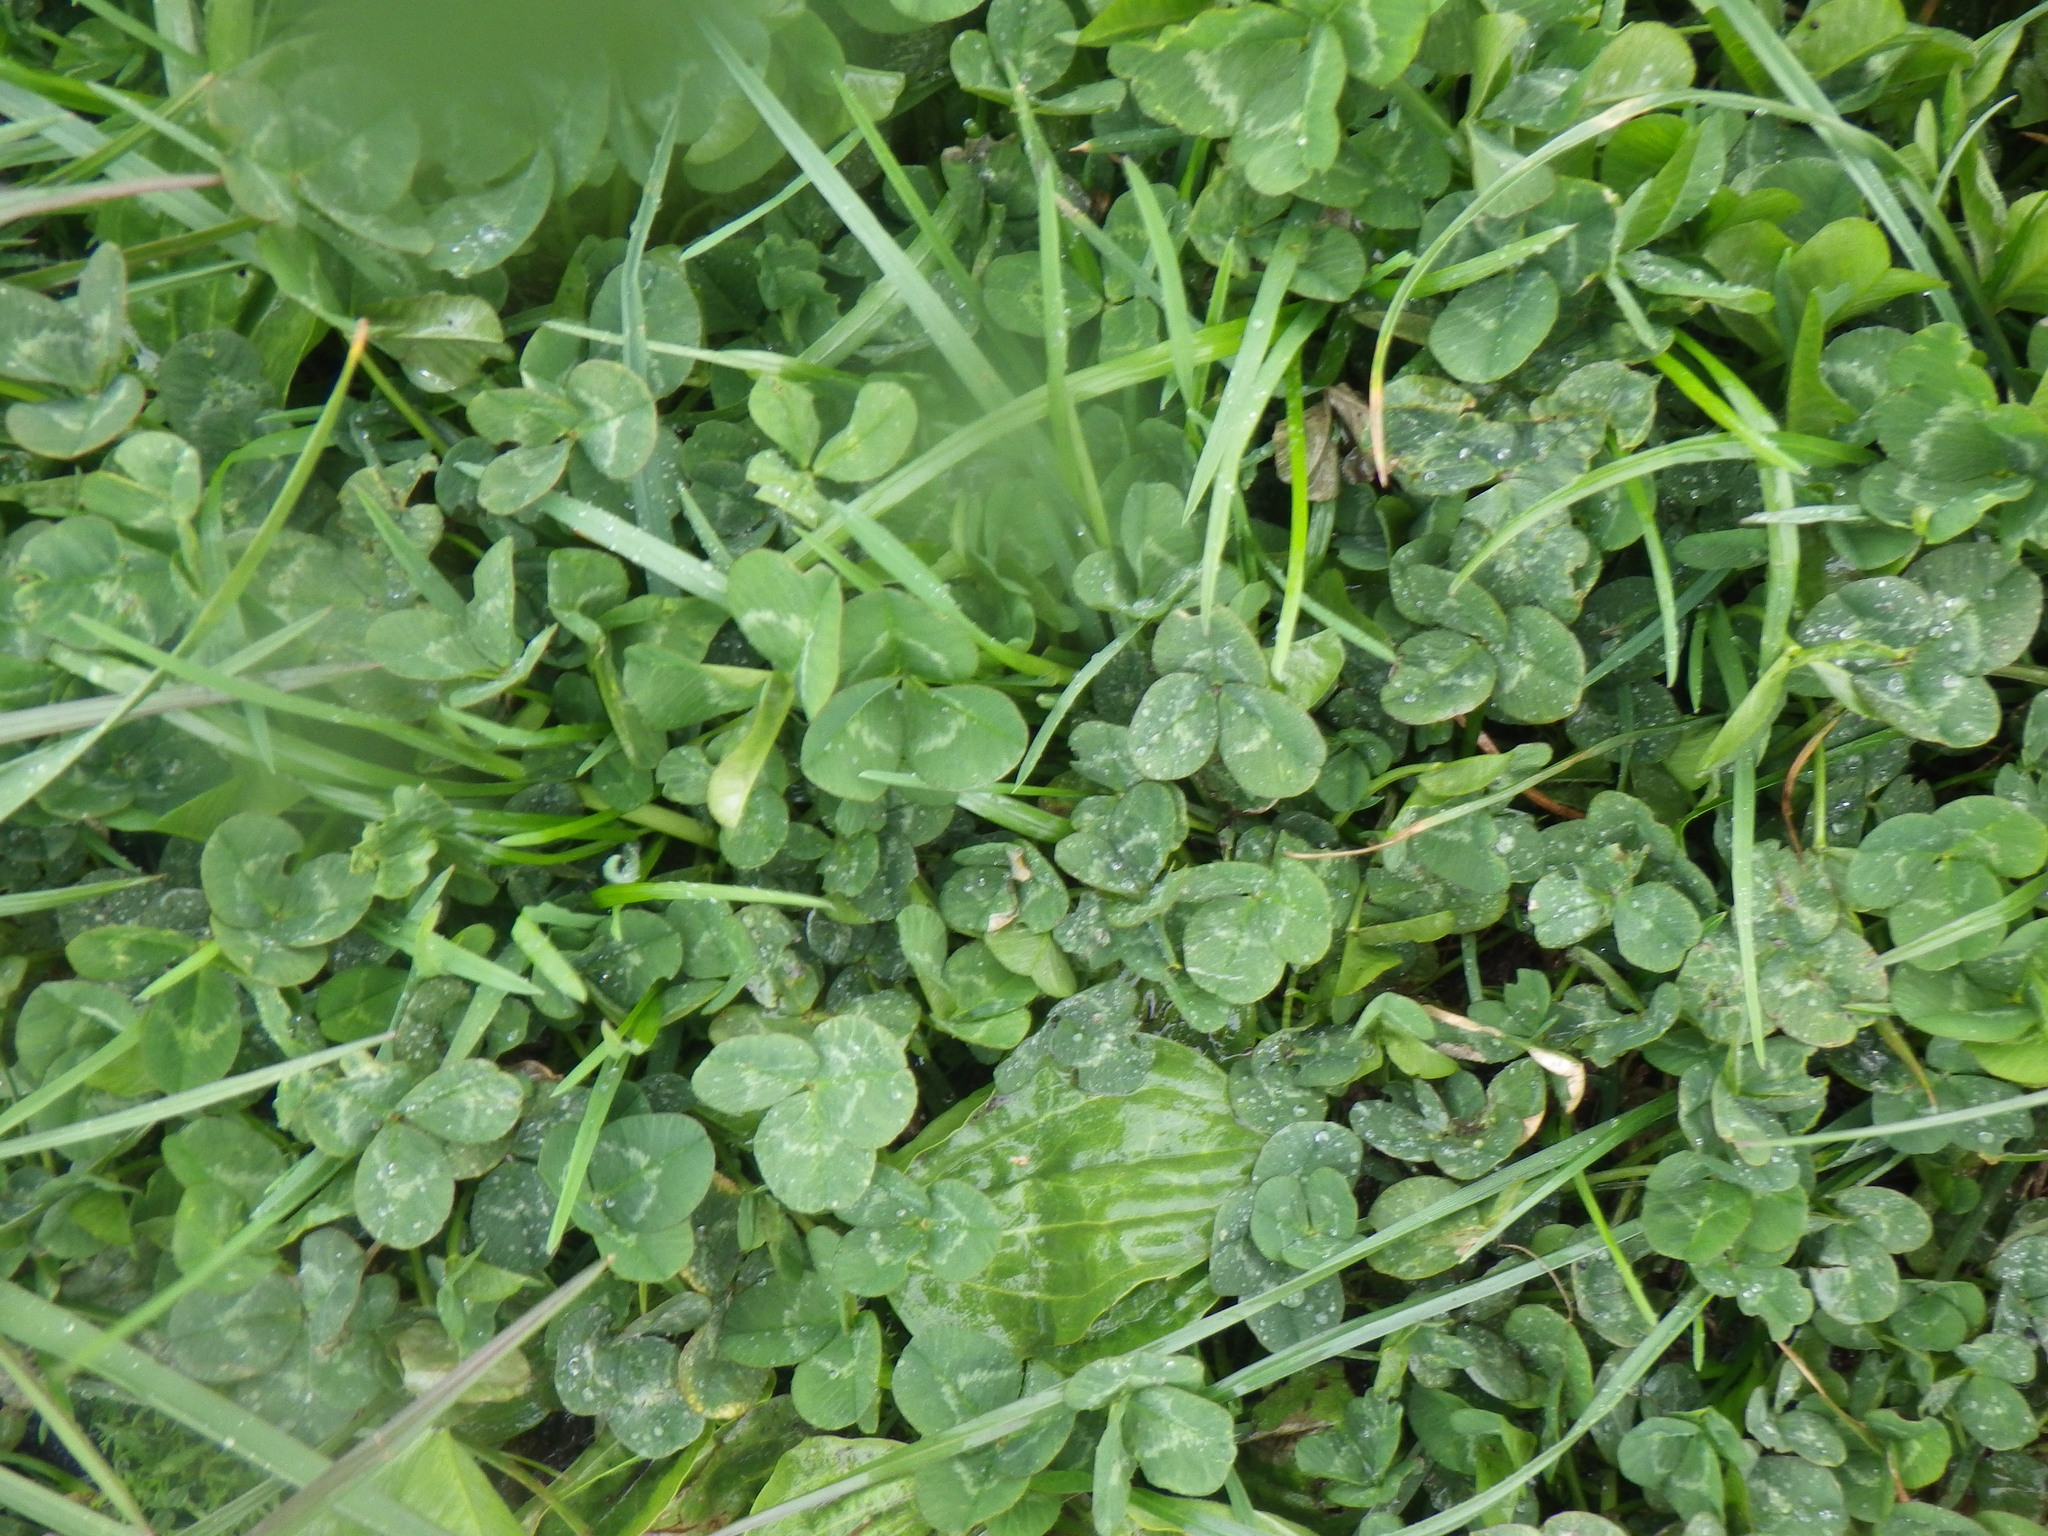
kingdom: Plantae
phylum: Tracheophyta
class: Magnoliopsida
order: Fabales
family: Fabaceae
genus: Trifolium
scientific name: Trifolium repens
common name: White clover
